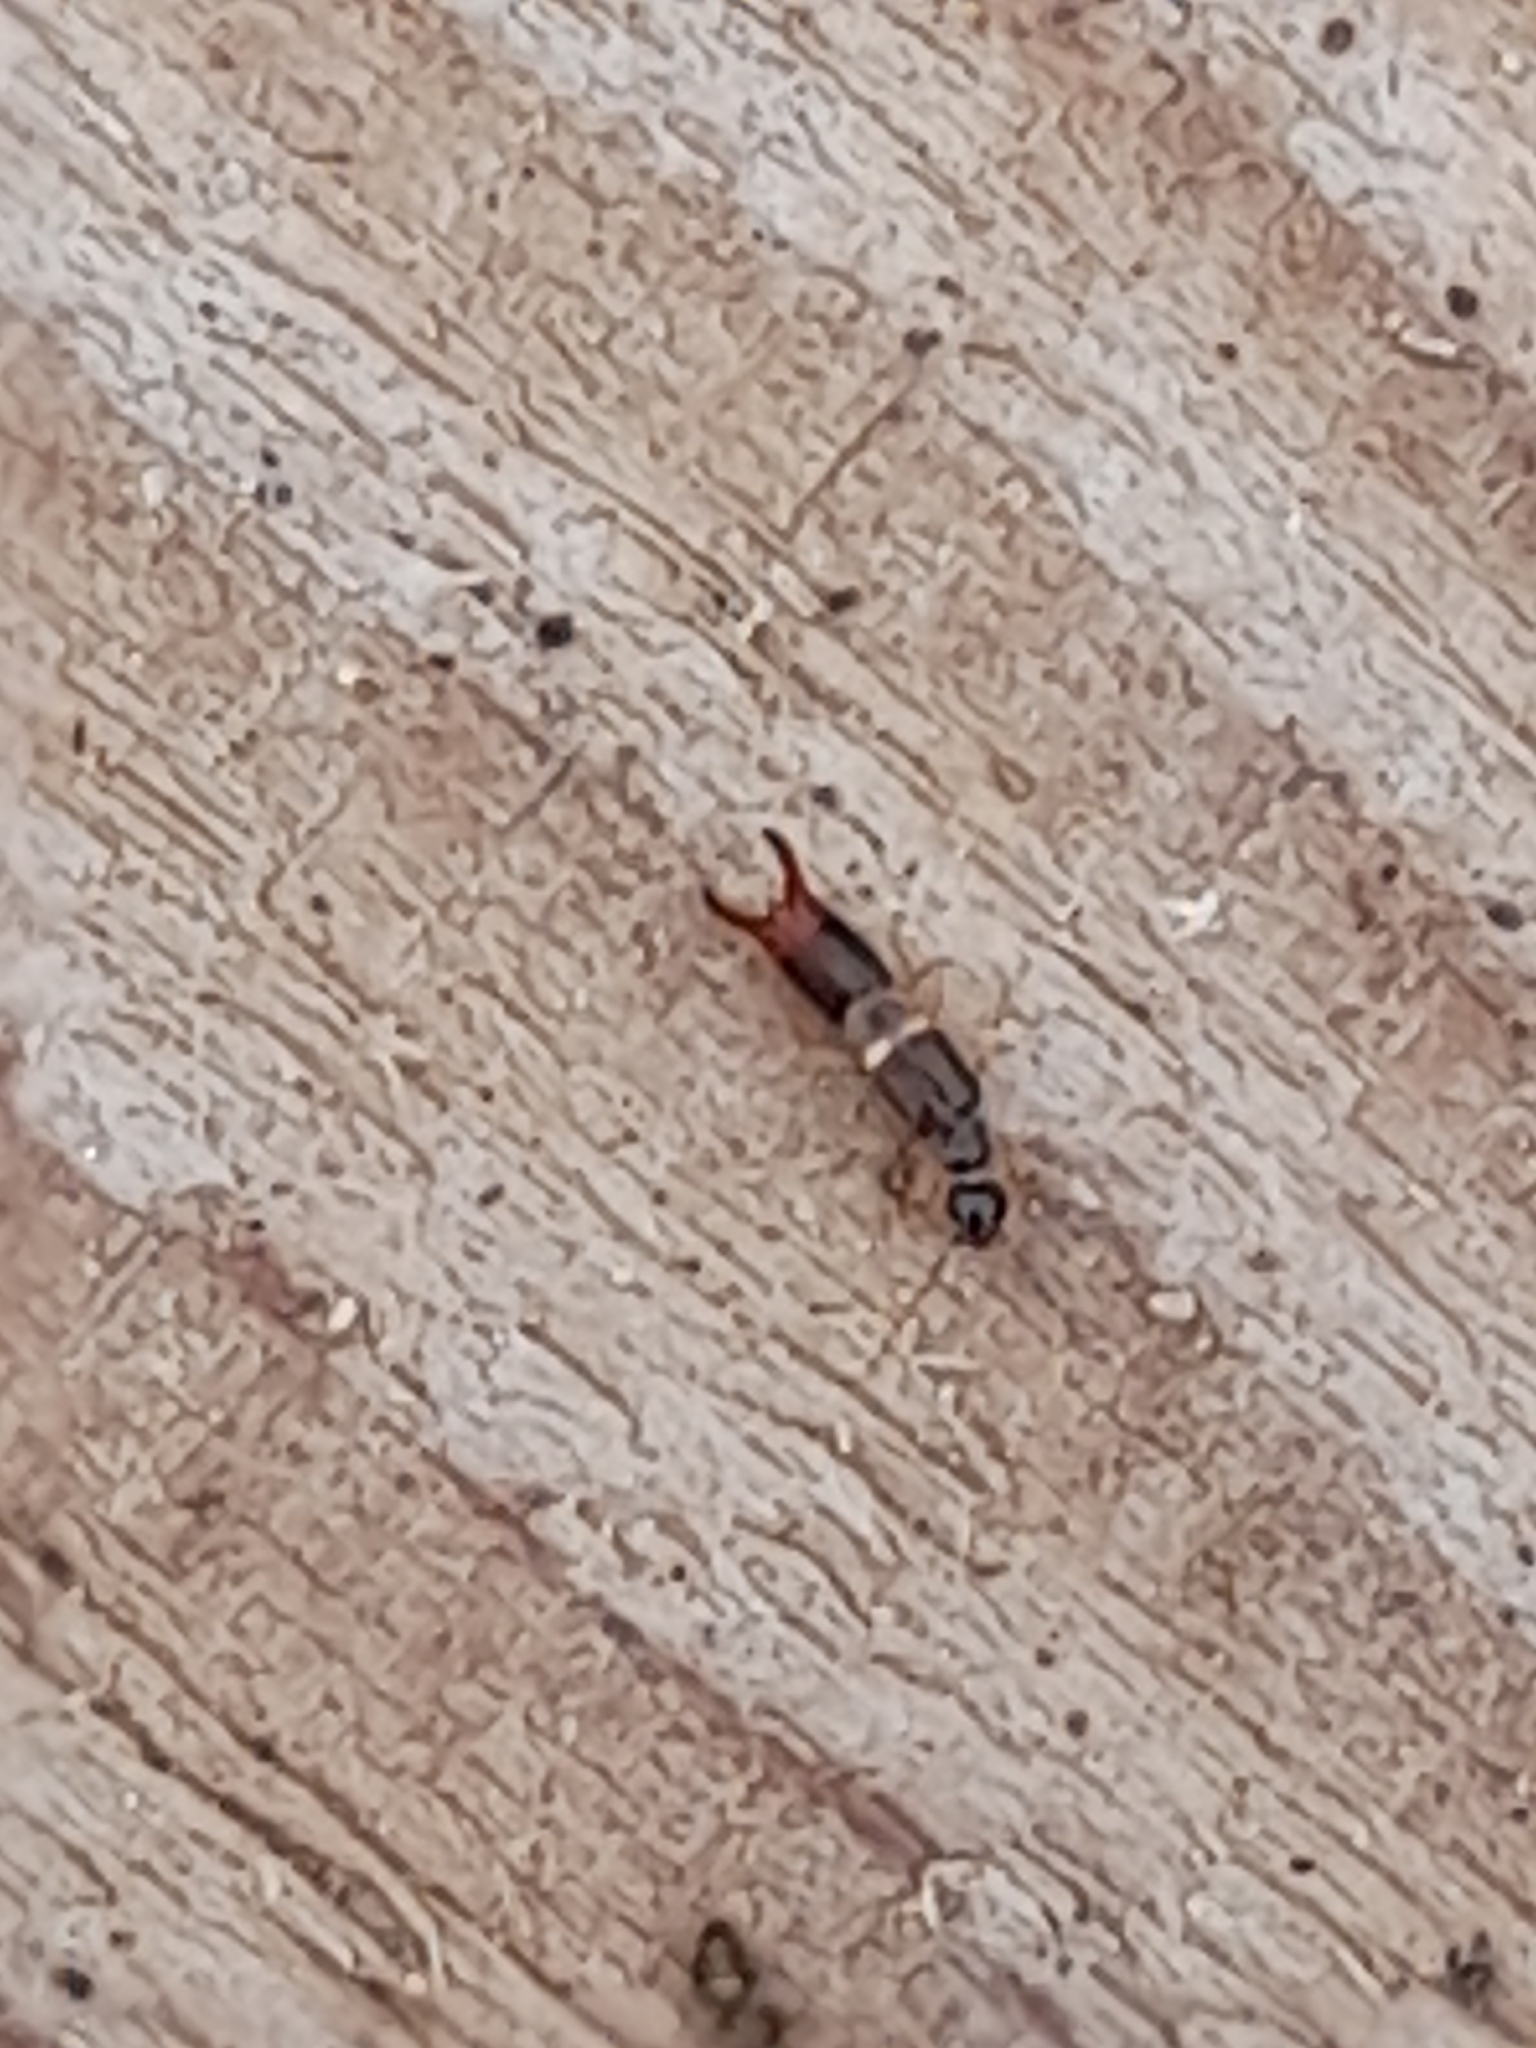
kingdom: Animalia
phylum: Arthropoda
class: Insecta
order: Dermaptera
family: Spongiphoridae
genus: Labia
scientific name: Labia minor
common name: Lesser earwig
